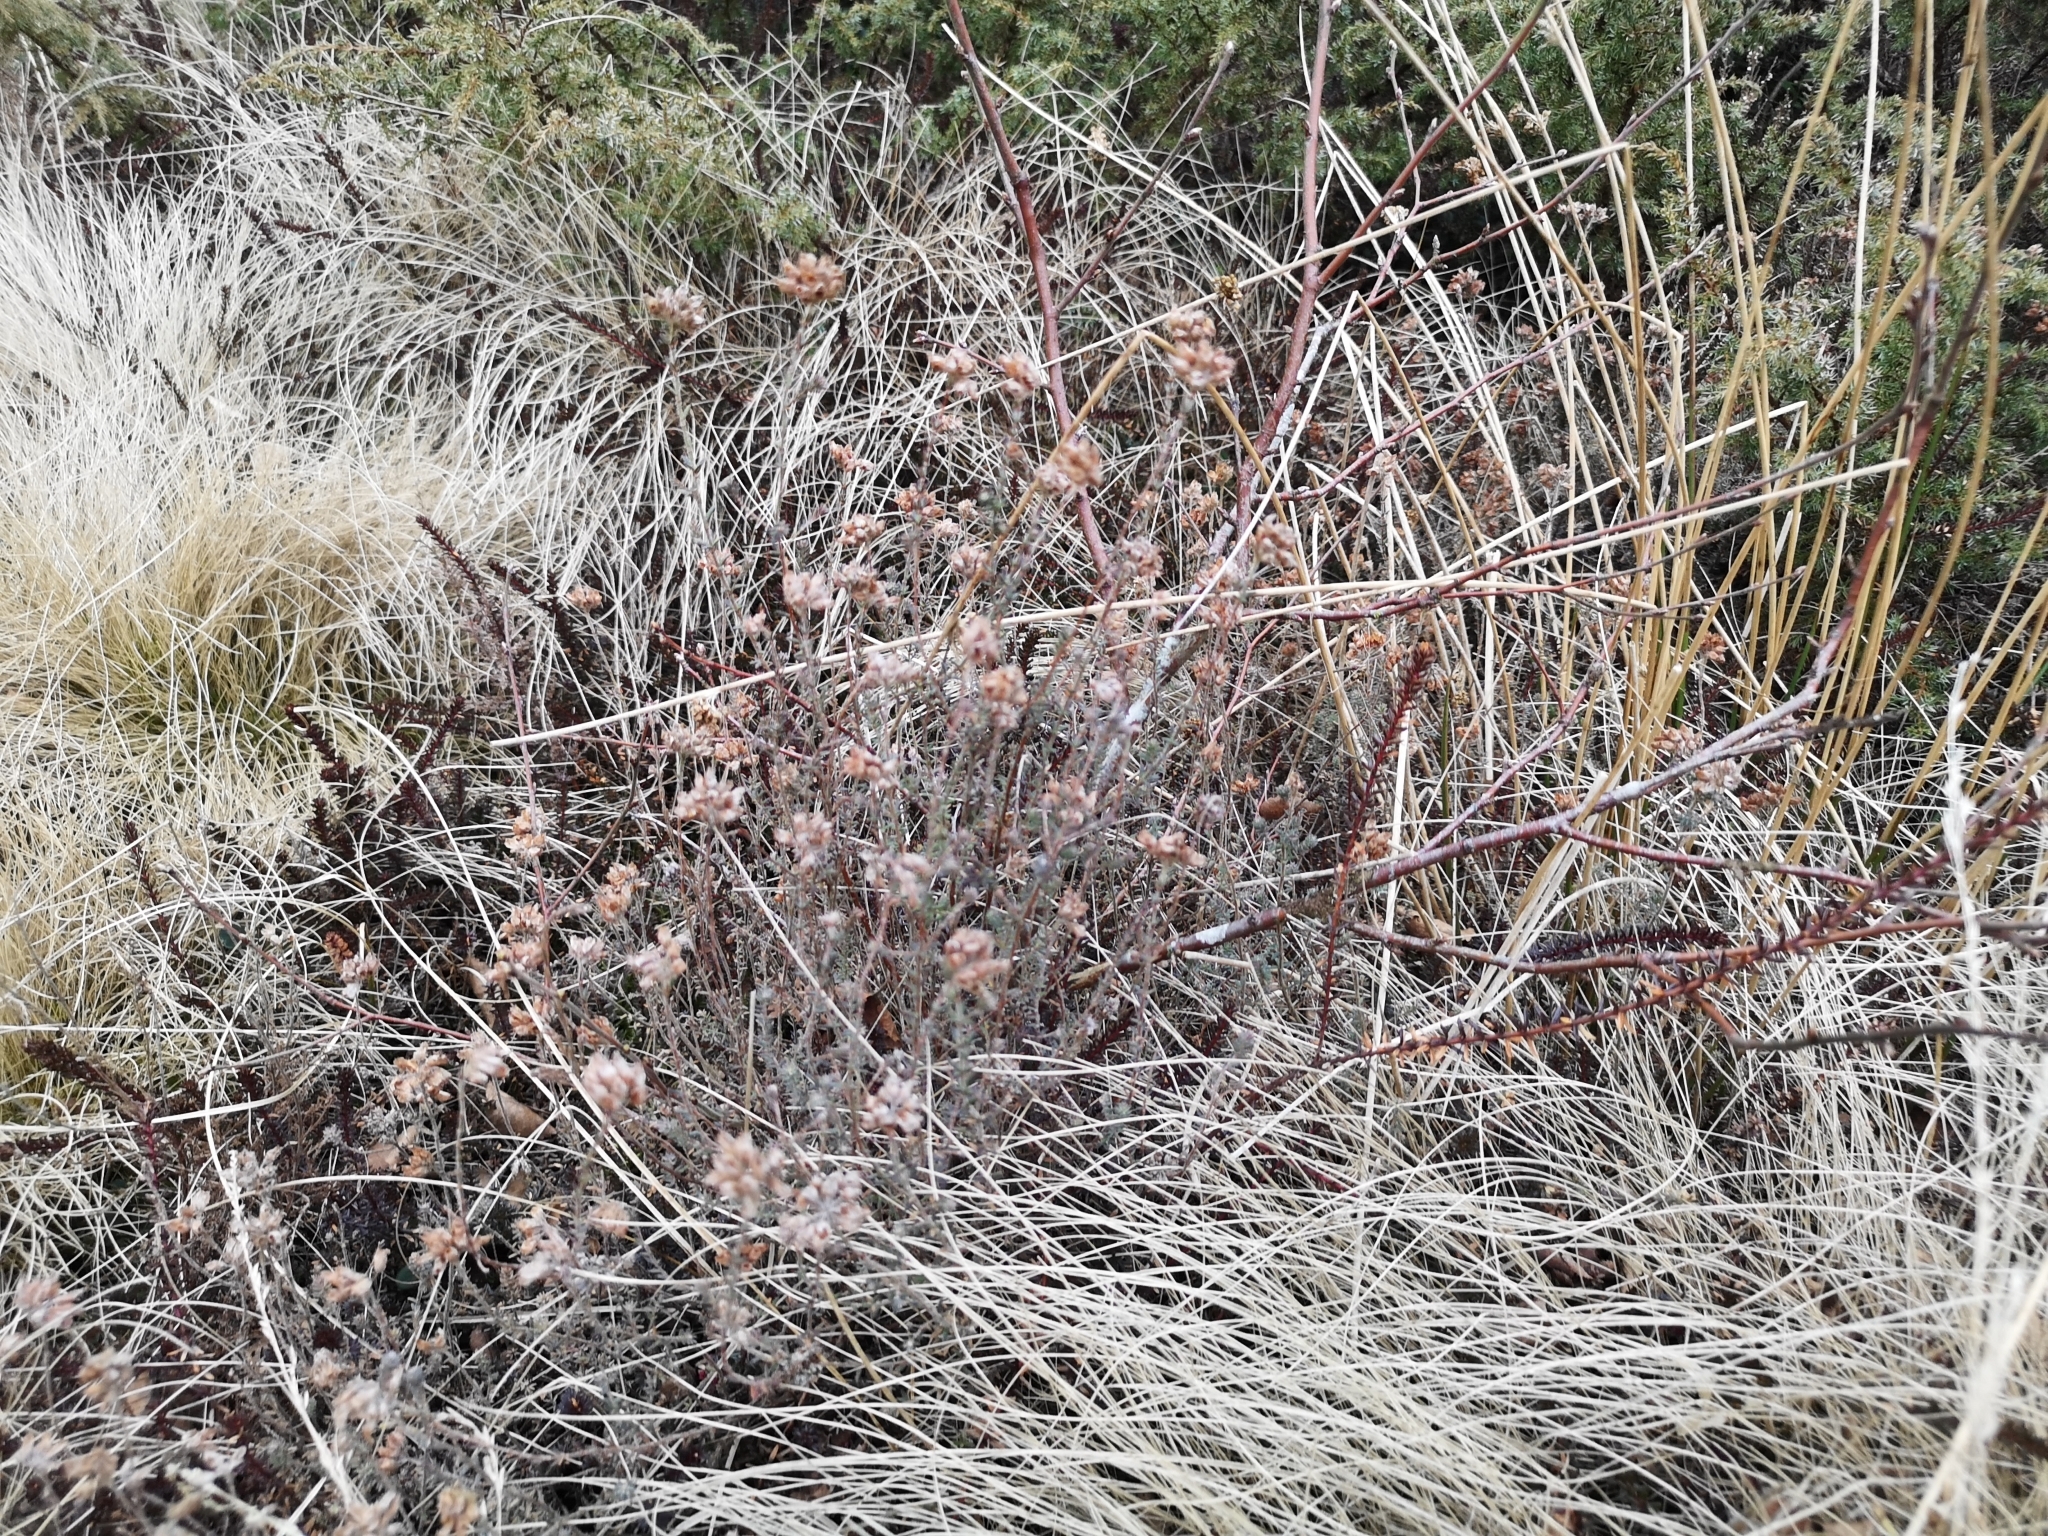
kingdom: Plantae
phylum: Tracheophyta
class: Magnoliopsida
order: Ericales
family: Ericaceae
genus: Erica
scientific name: Erica tetralix
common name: Cross-leaved heath
